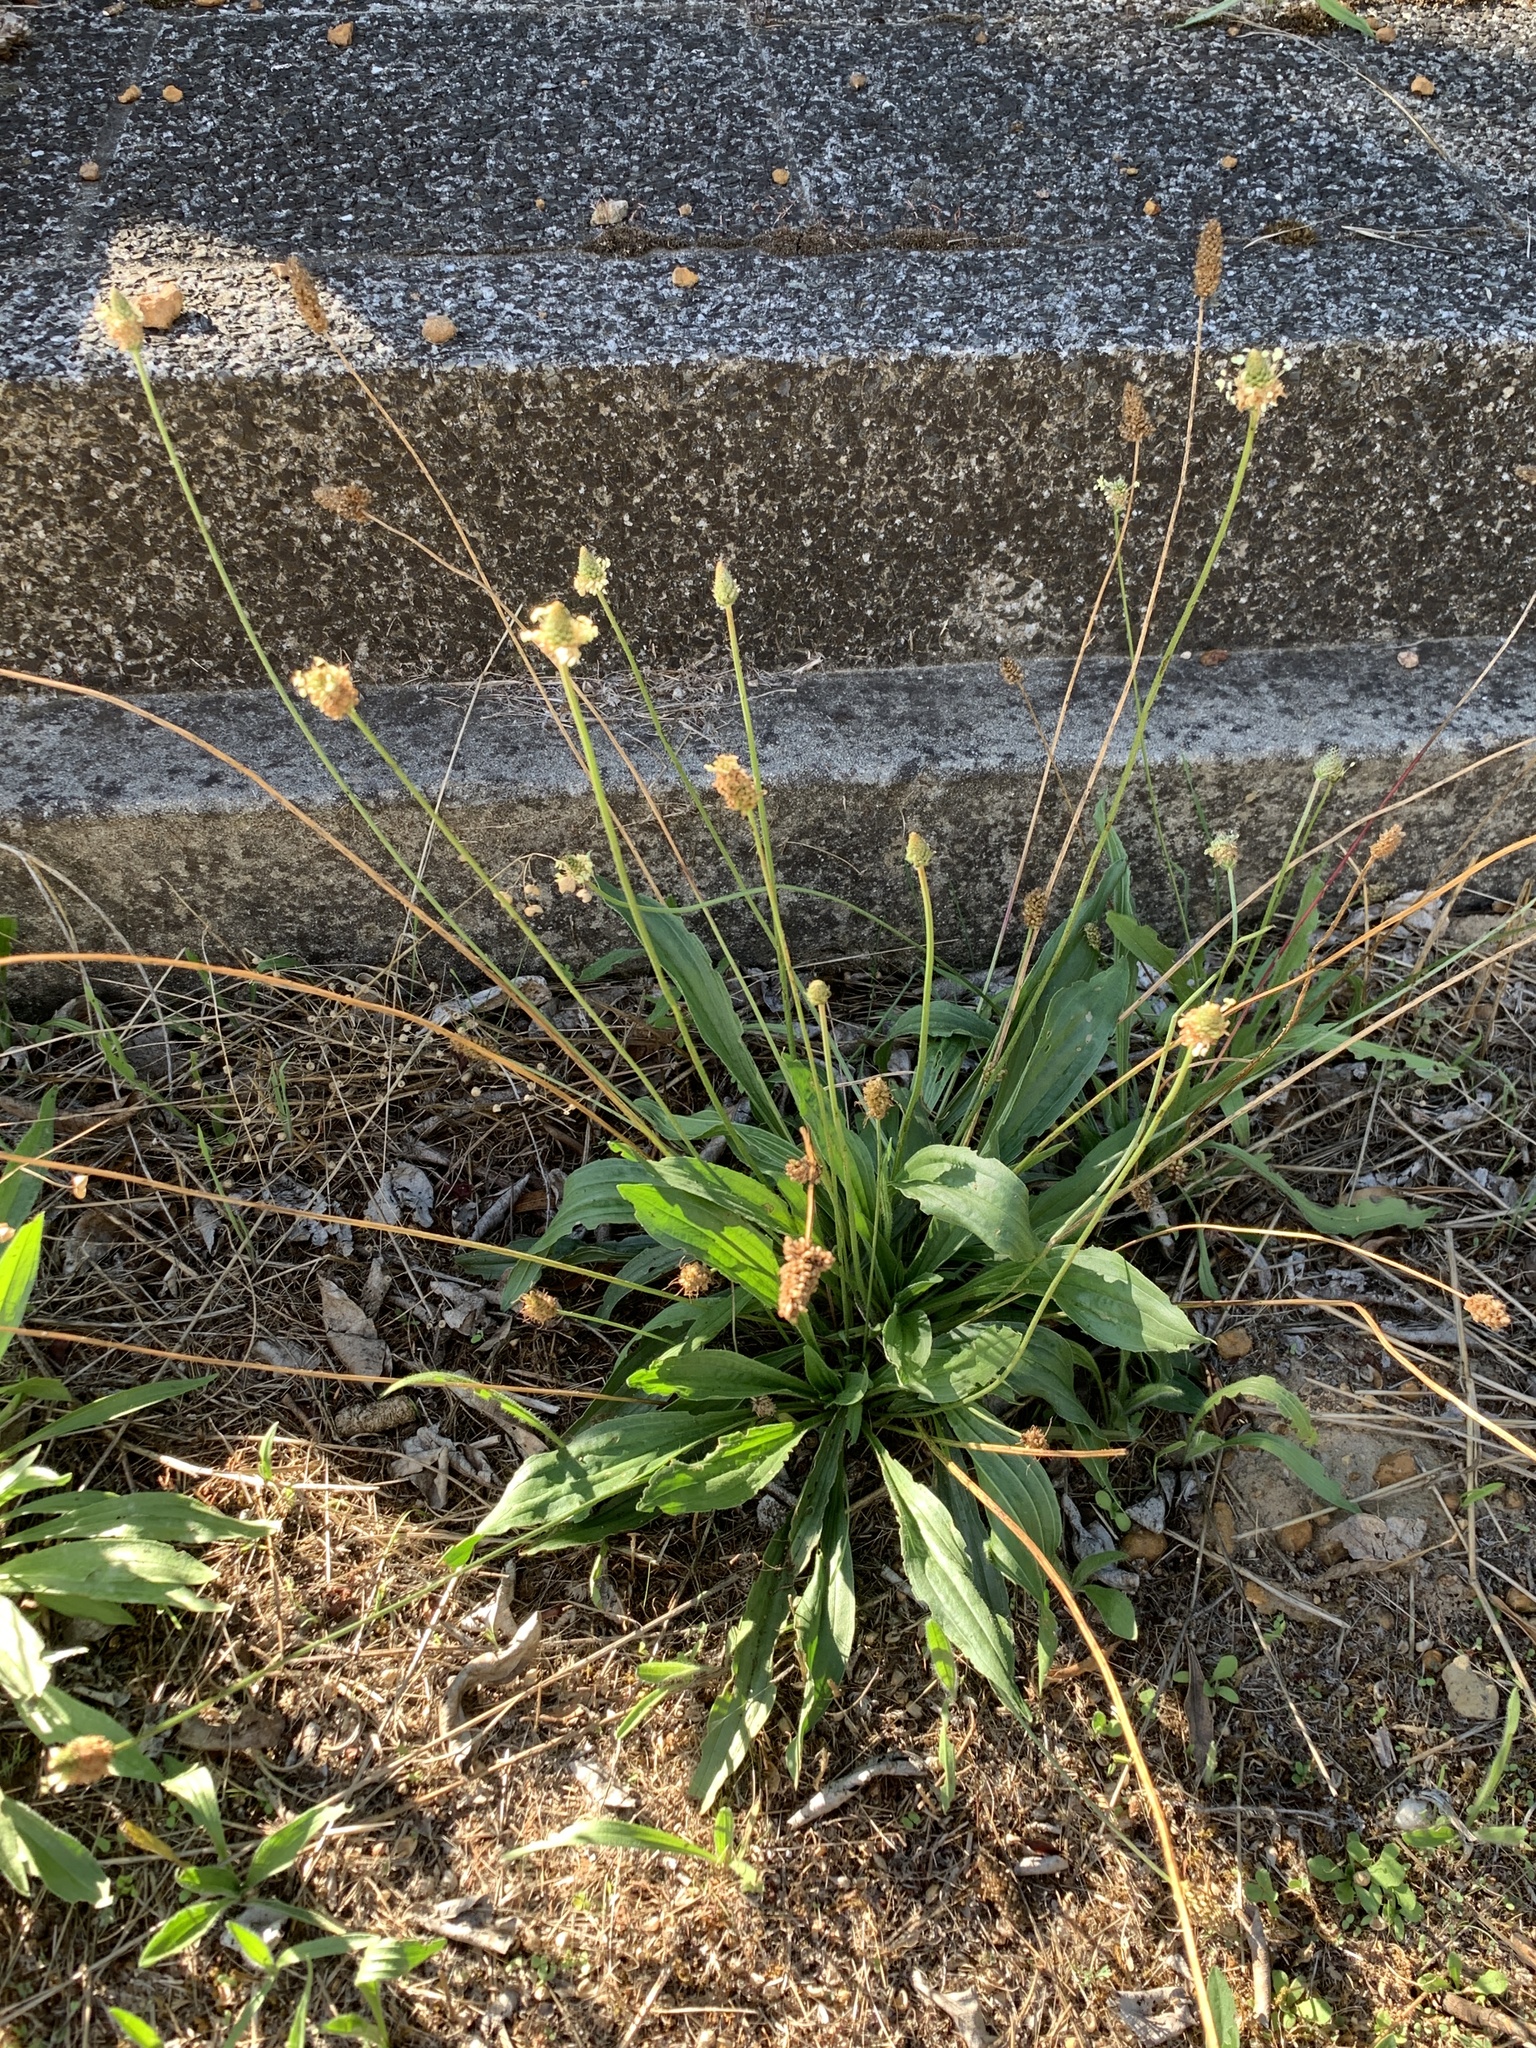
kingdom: Plantae
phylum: Tracheophyta
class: Magnoliopsida
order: Lamiales
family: Plantaginaceae
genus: Plantago
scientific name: Plantago lanceolata
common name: Ribwort plantain
